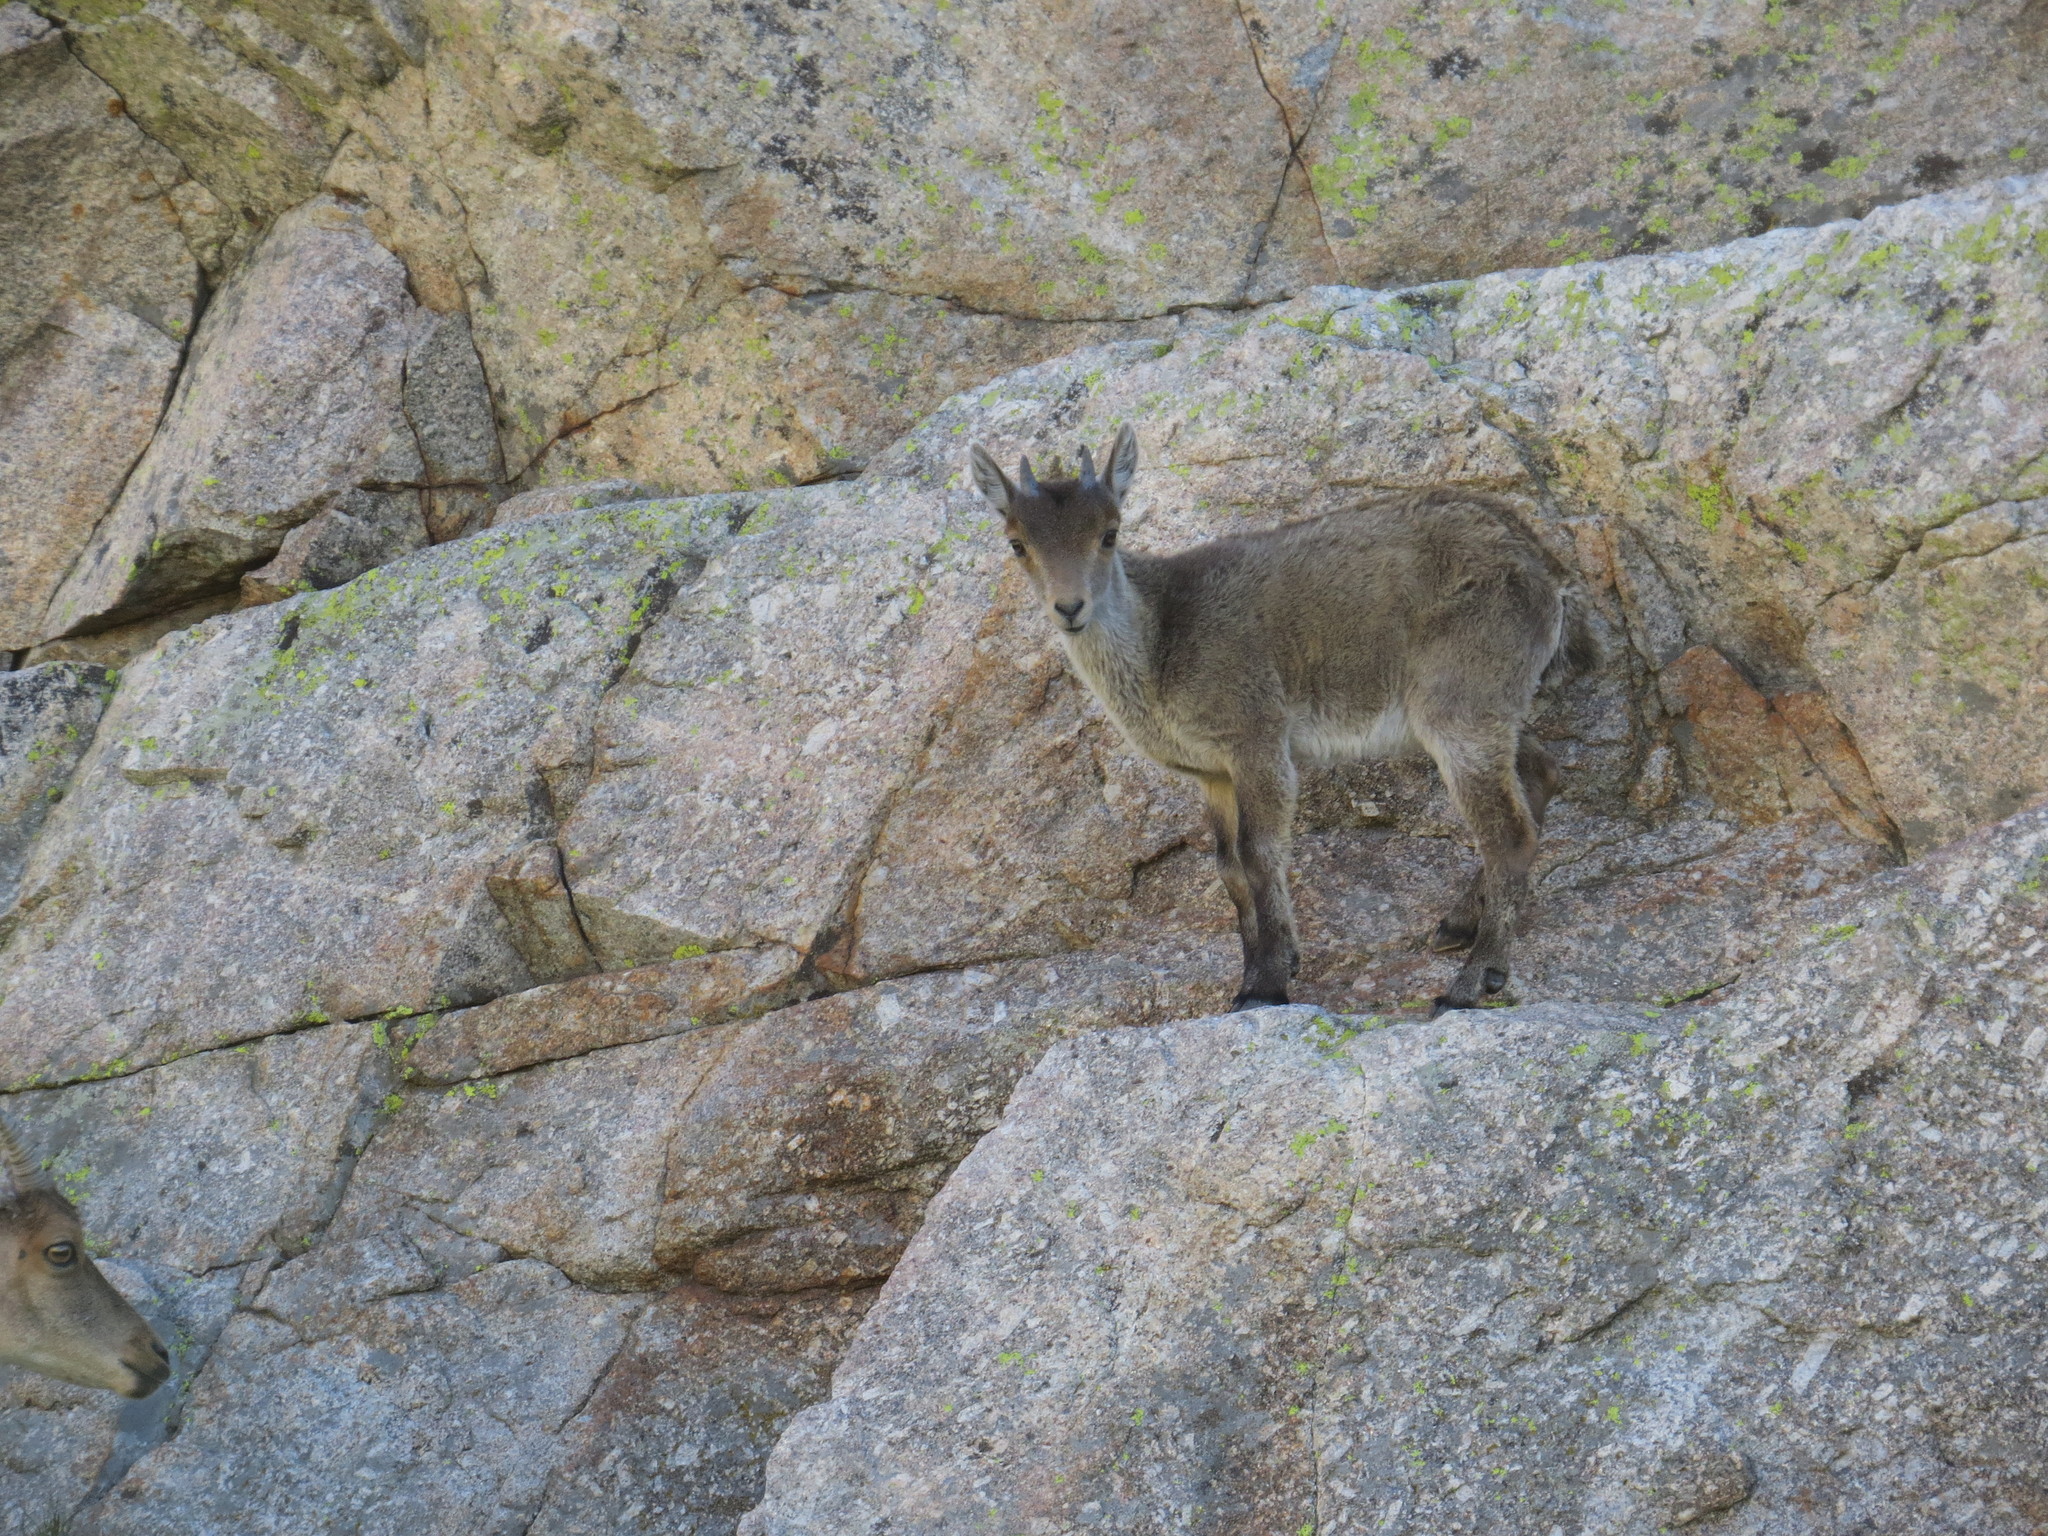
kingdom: Animalia
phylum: Chordata
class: Mammalia
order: Artiodactyla
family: Bovidae
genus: Capra
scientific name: Capra pyrenaica
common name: Spanish ibex
